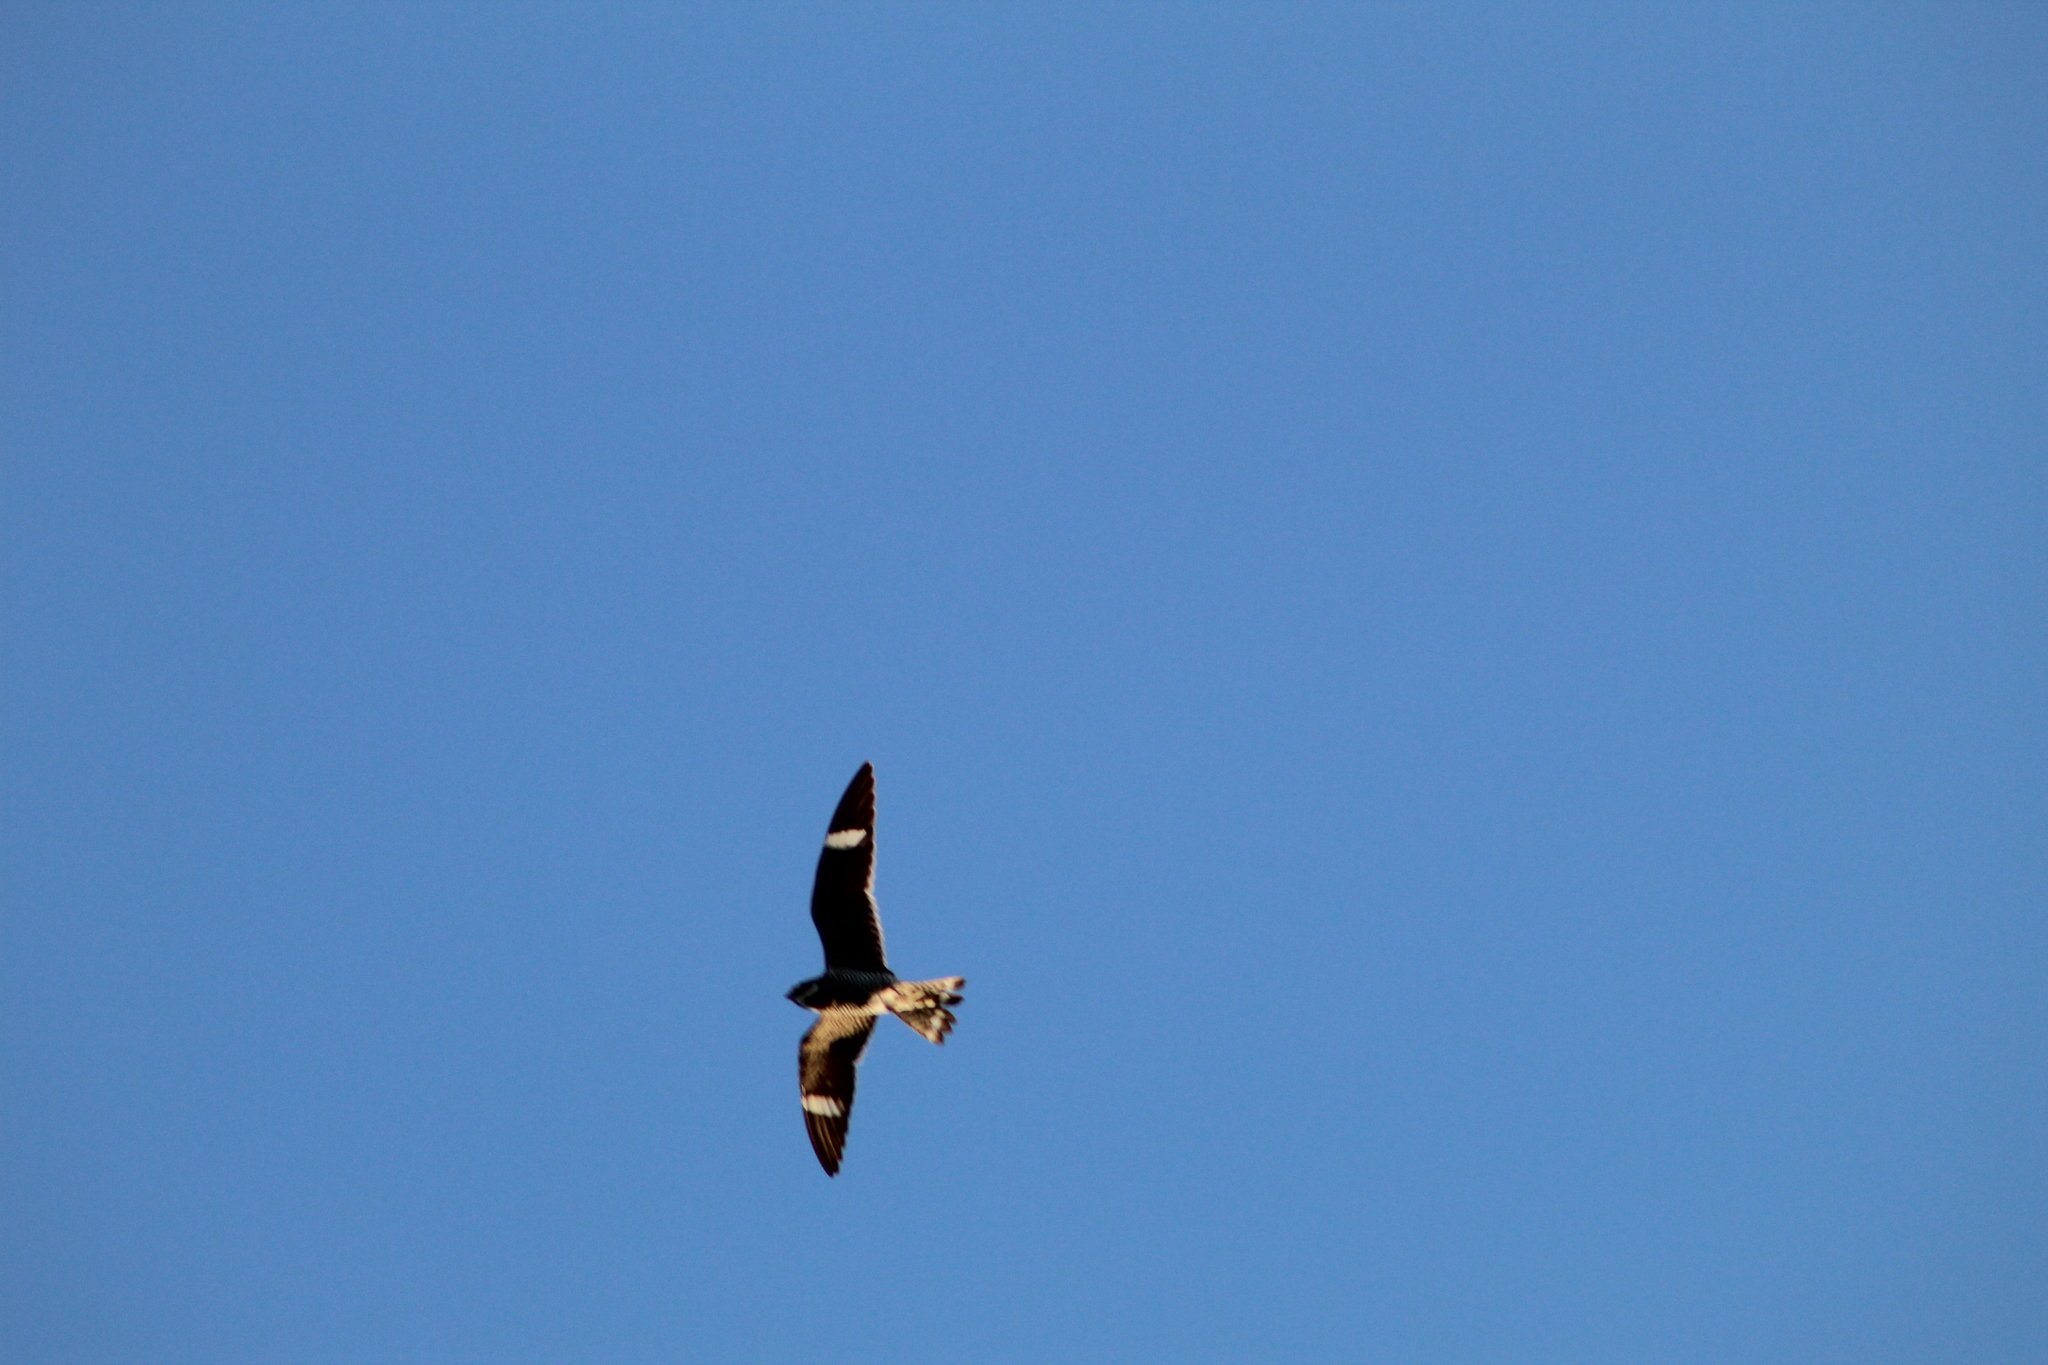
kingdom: Animalia
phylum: Chordata
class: Aves
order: Caprimulgiformes
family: Caprimulgidae
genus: Chordeiles
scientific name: Chordeiles minor
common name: Common nighthawk
